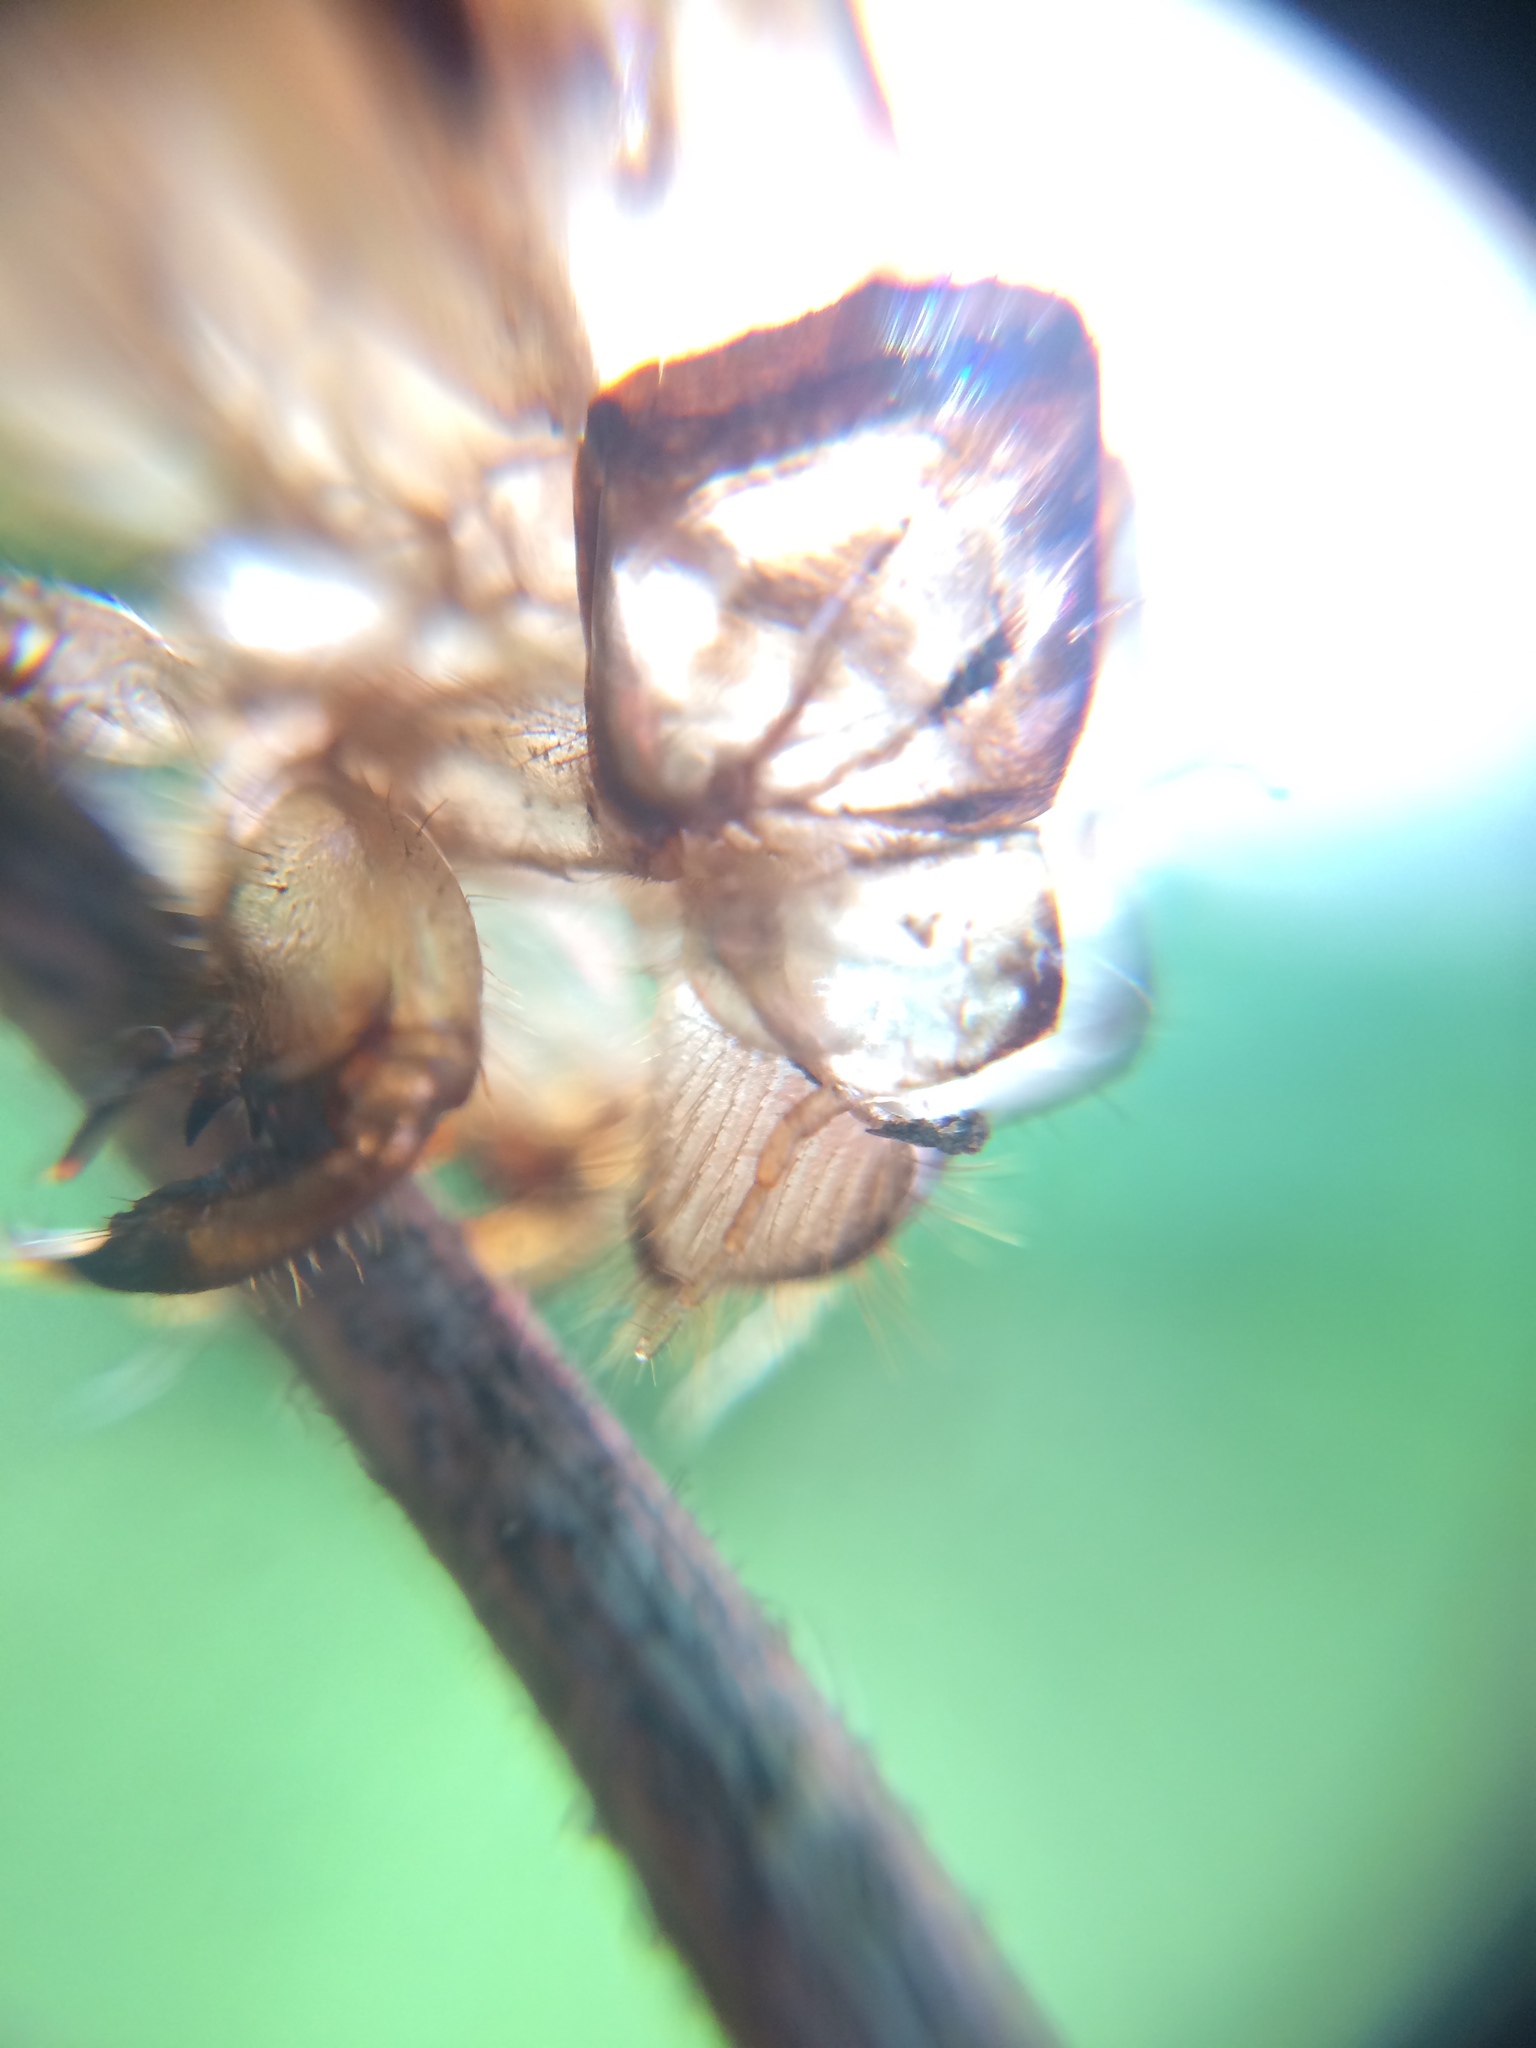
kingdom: Animalia
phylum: Arthropoda
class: Insecta
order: Hemiptera
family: Cicadidae
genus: Platypedia
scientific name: Platypedia
